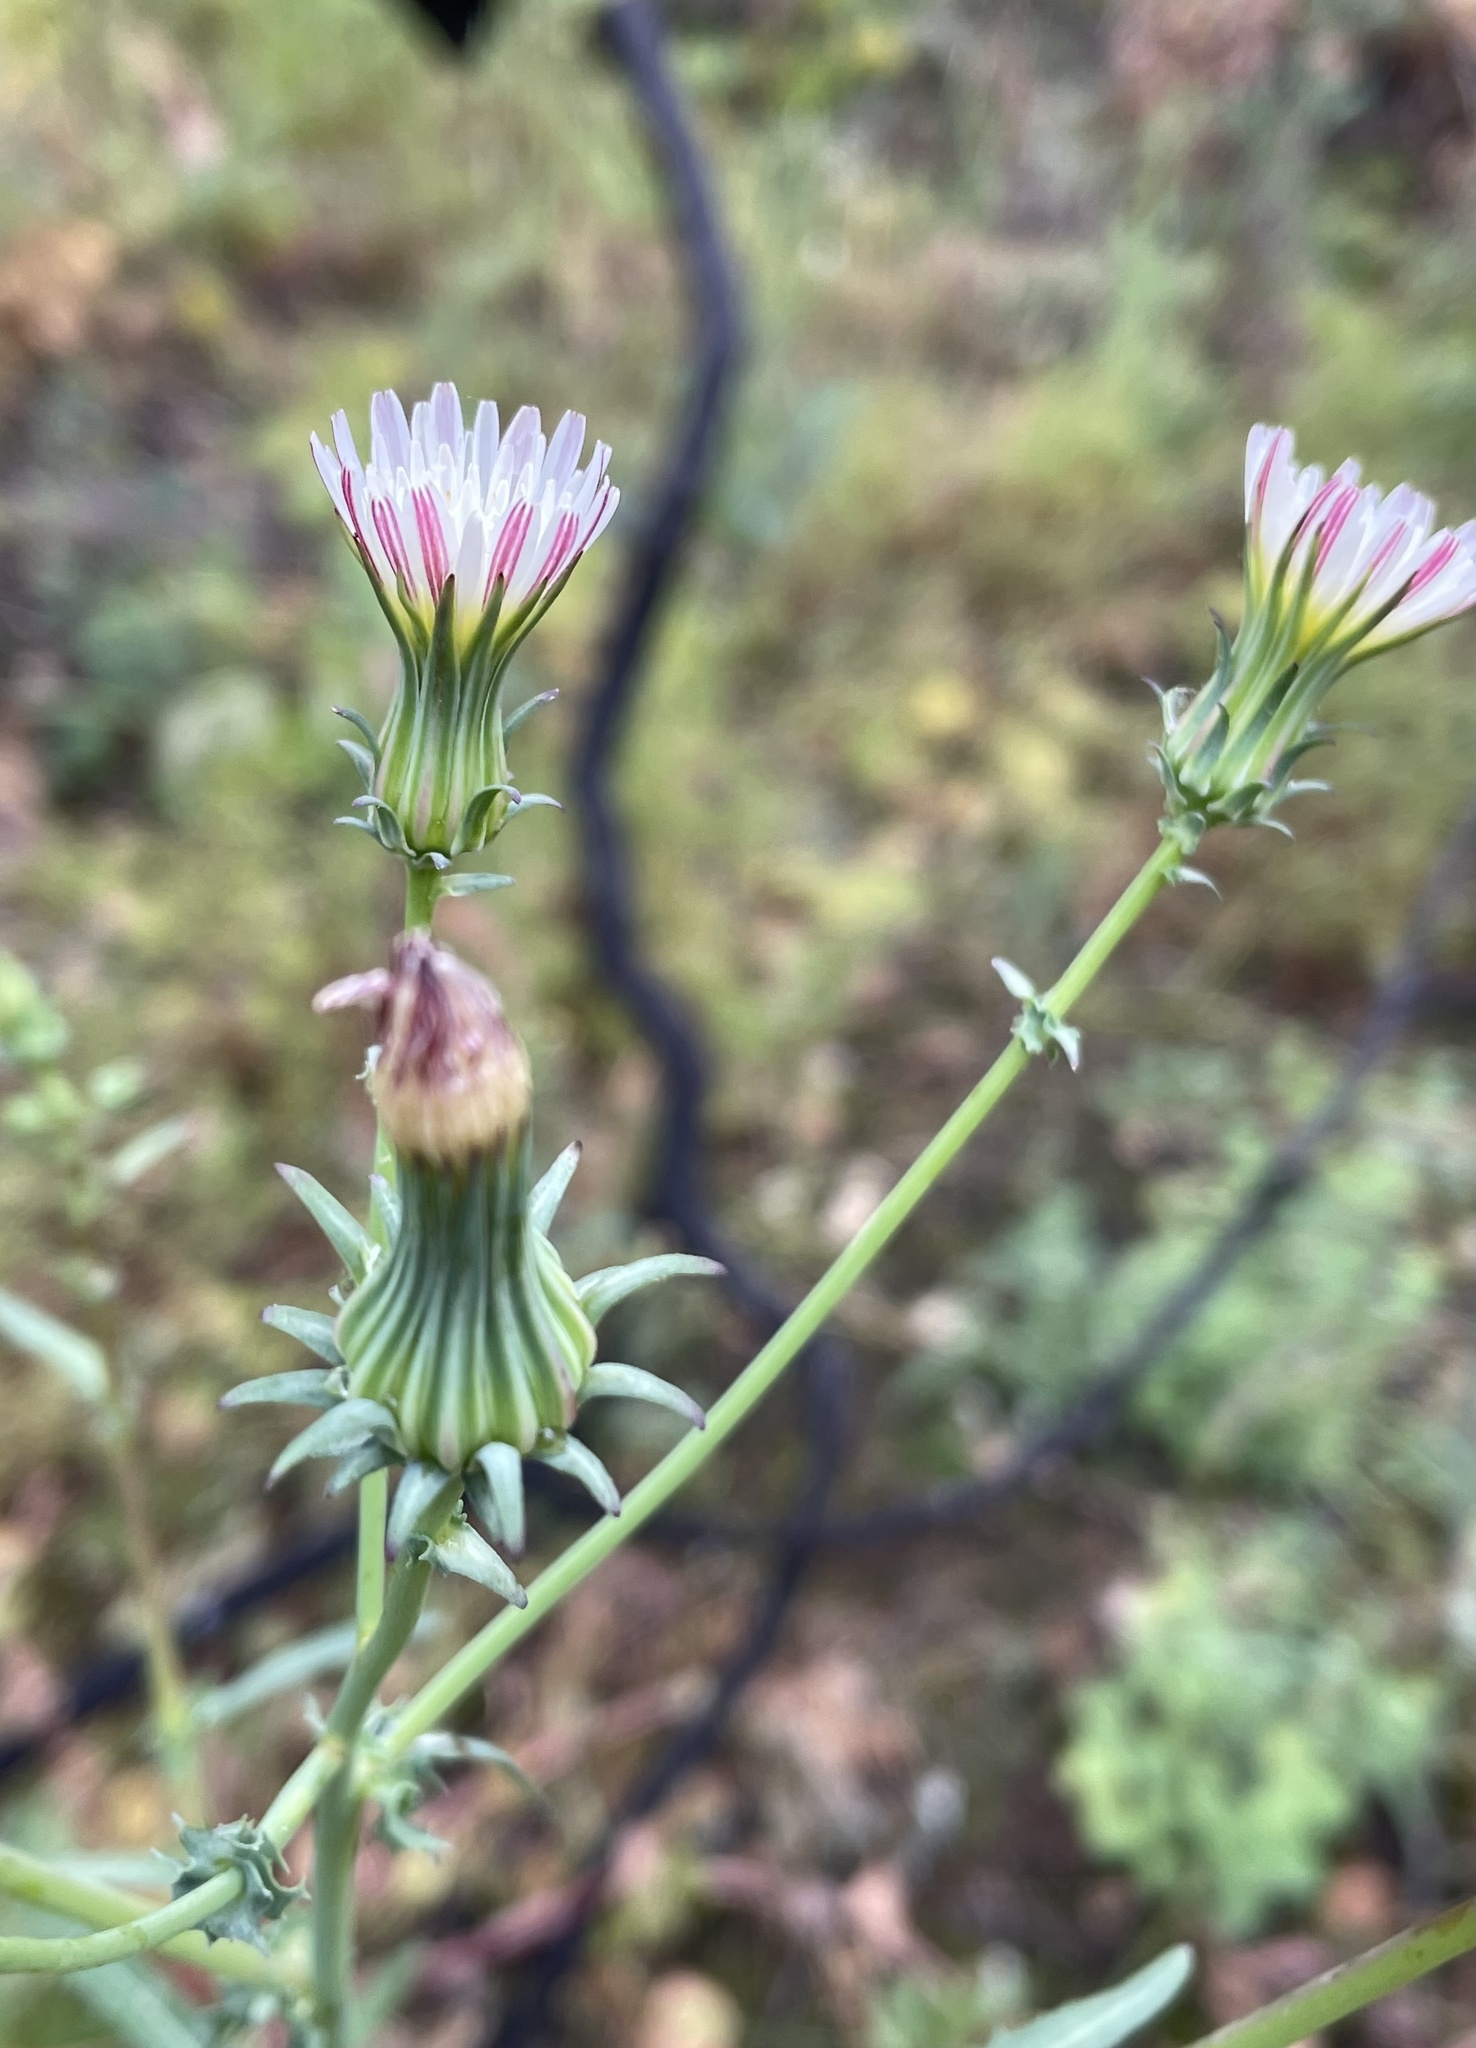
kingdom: Plantae
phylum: Tracheophyta
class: Magnoliopsida
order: Asterales
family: Asteraceae
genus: Rafinesquia
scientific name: Rafinesquia californica
